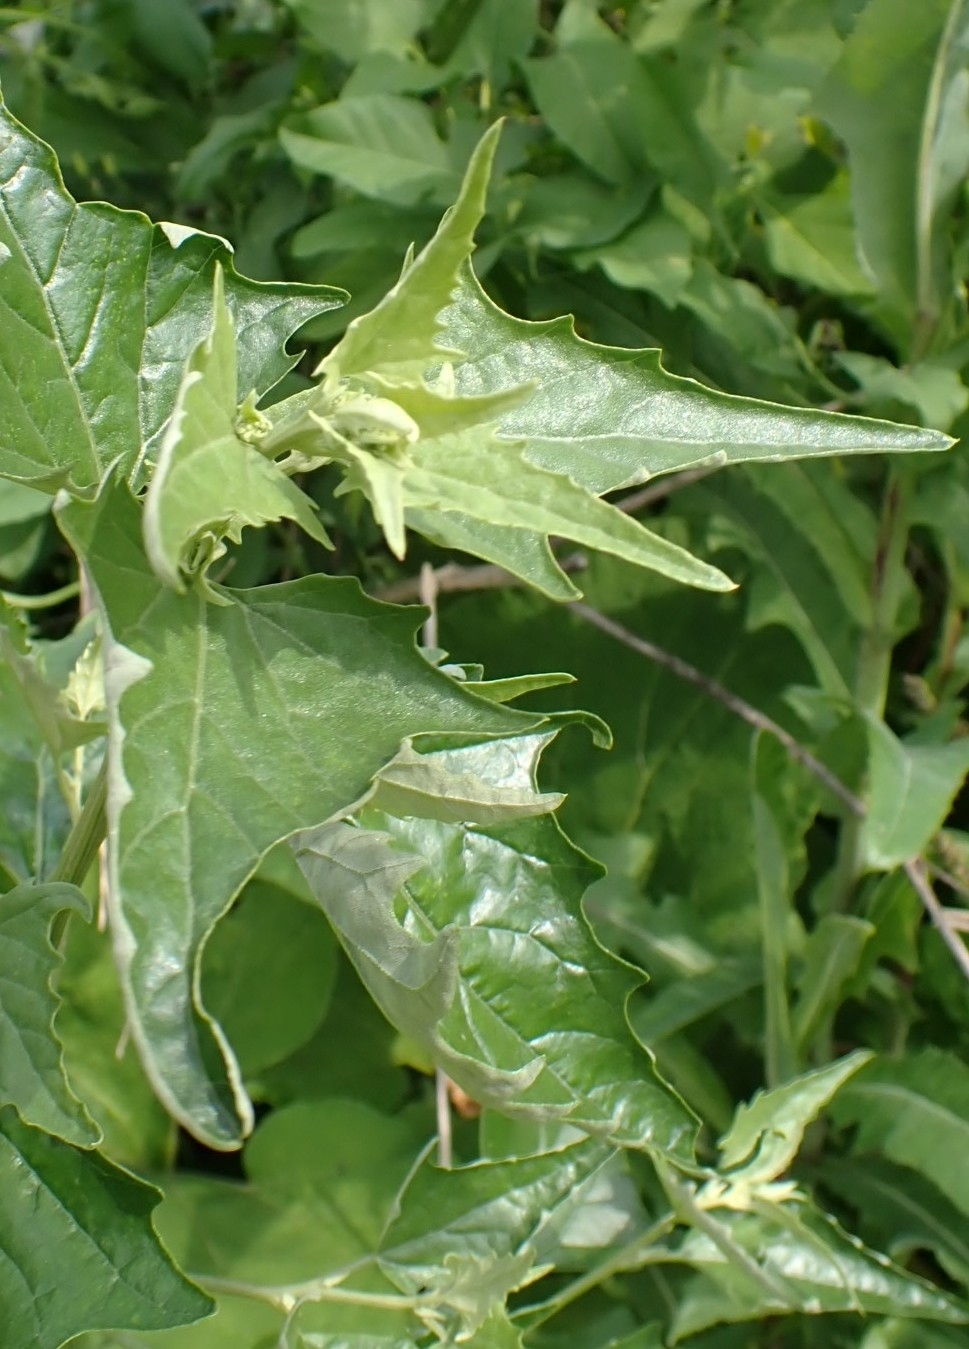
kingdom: Plantae
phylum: Tracheophyta
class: Magnoliopsida
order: Caryophyllales
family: Amaranthaceae
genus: Atriplex
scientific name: Atriplex sagittata
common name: Purple orache
